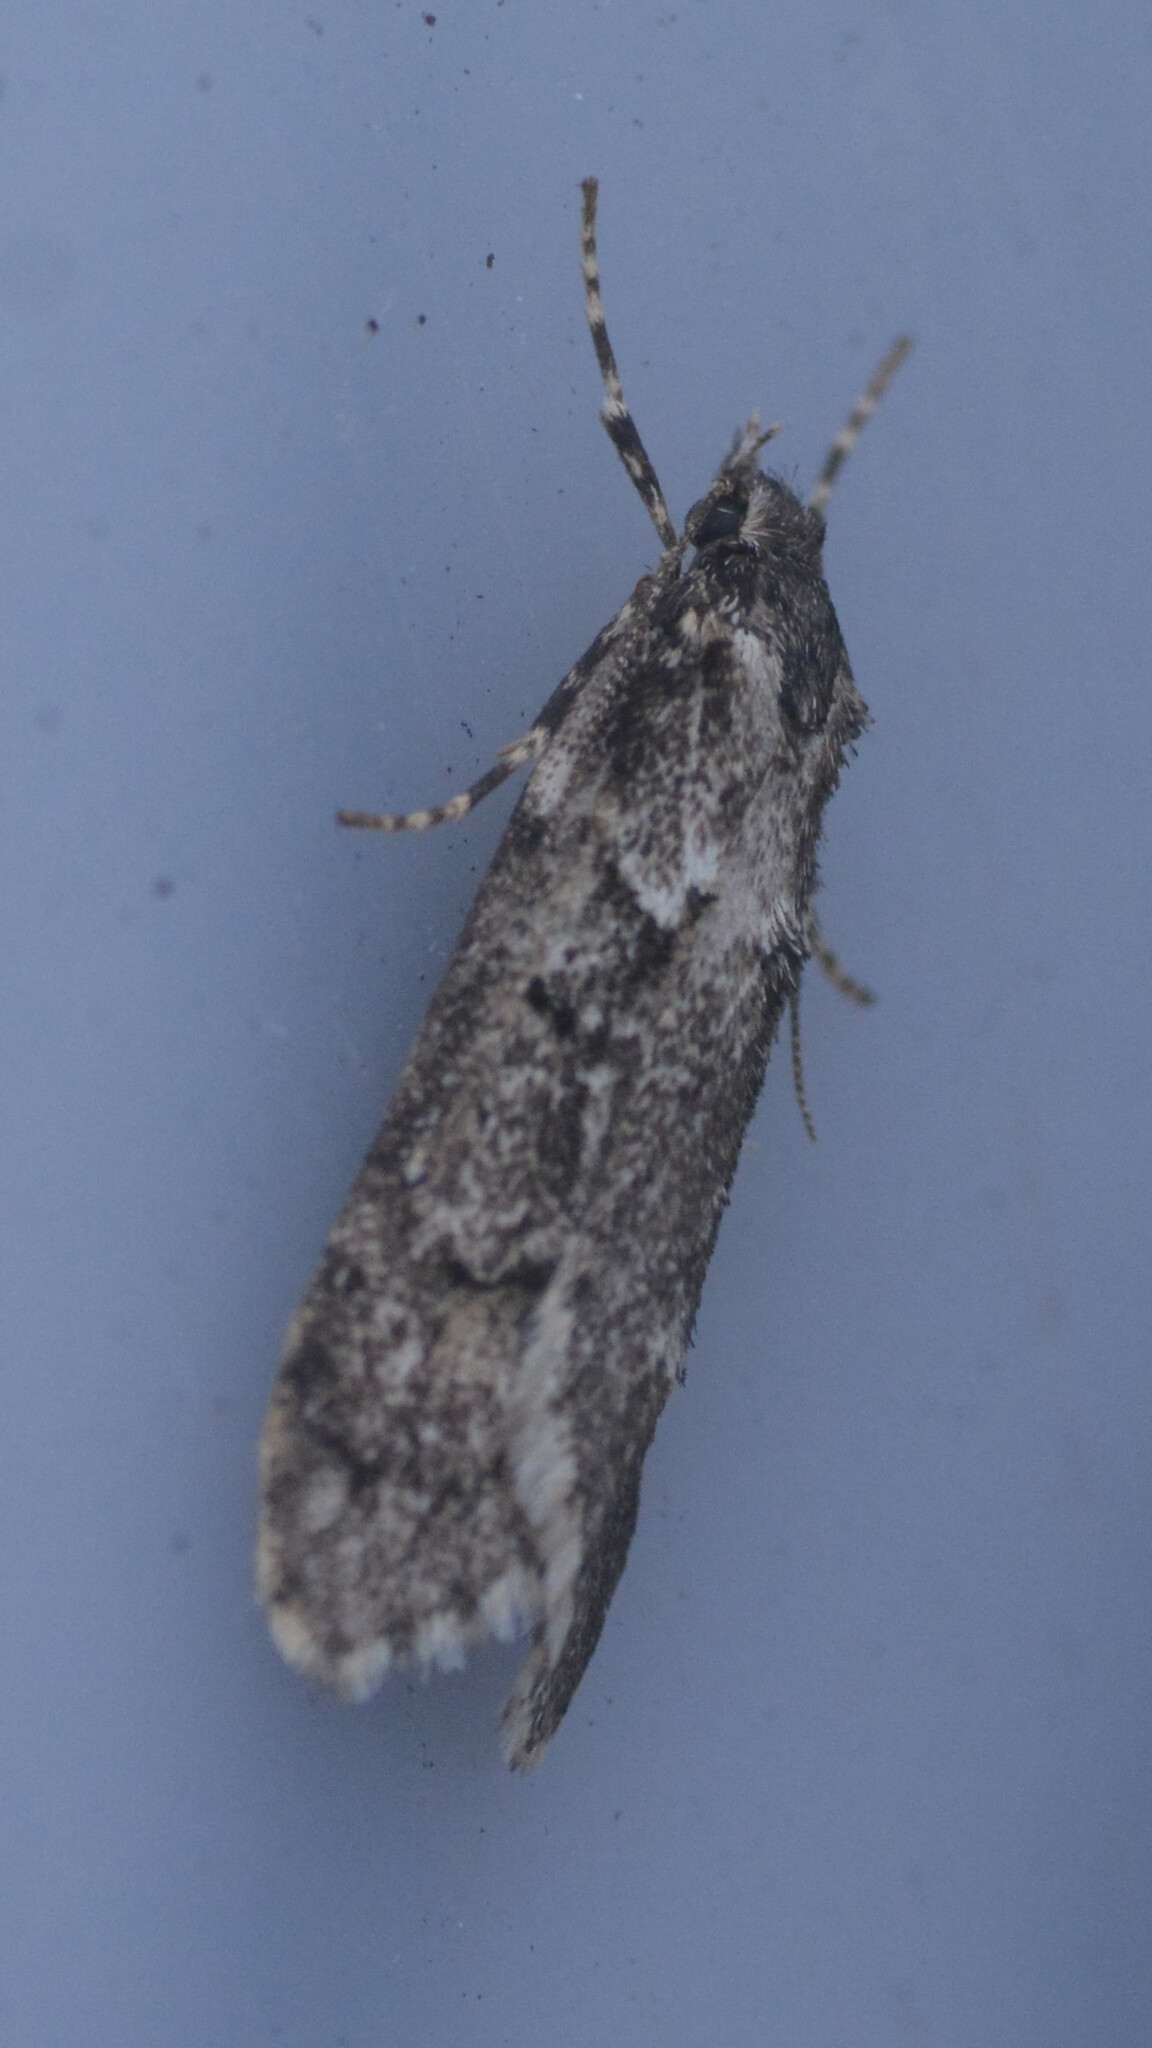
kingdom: Animalia
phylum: Arthropoda
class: Insecta
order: Lepidoptera
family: Lypusidae
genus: Diurnea
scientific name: Diurnea fagella
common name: March tubic
